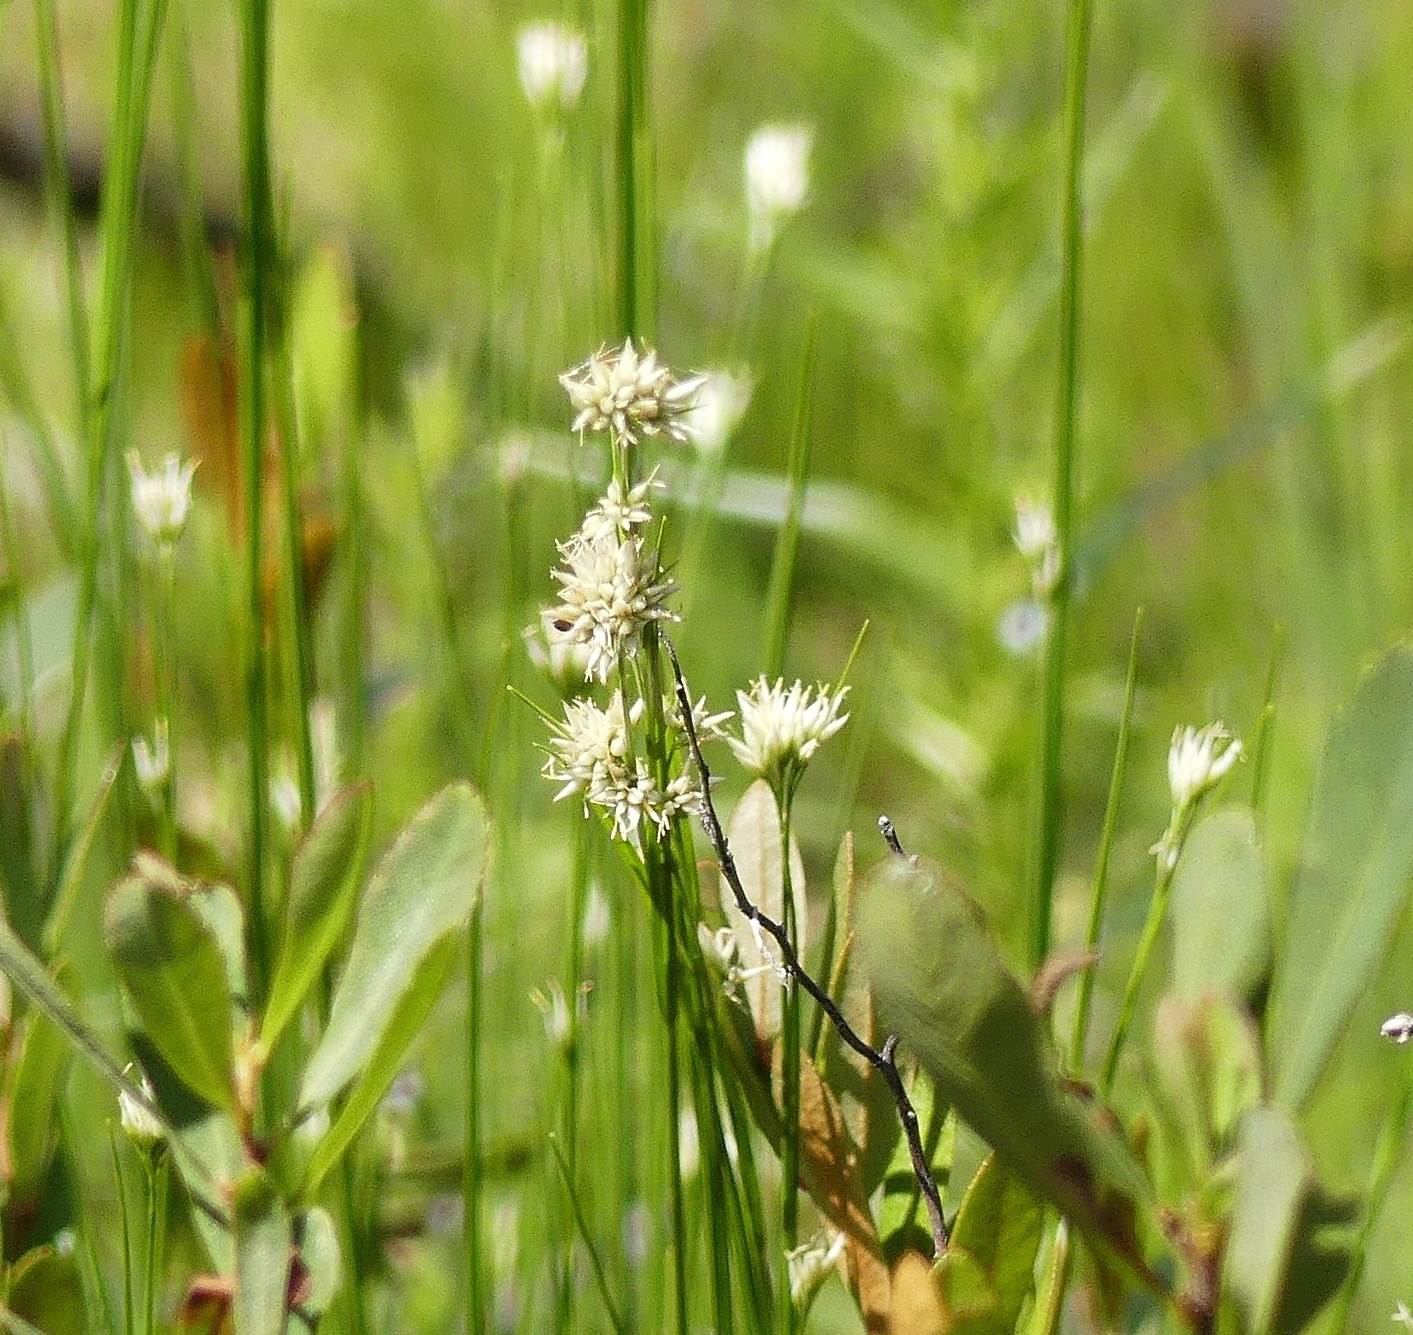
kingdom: Plantae
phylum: Tracheophyta
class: Liliopsida
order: Poales
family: Cyperaceae
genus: Rhynchospora
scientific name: Rhynchospora alba
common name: White beak-sedge
